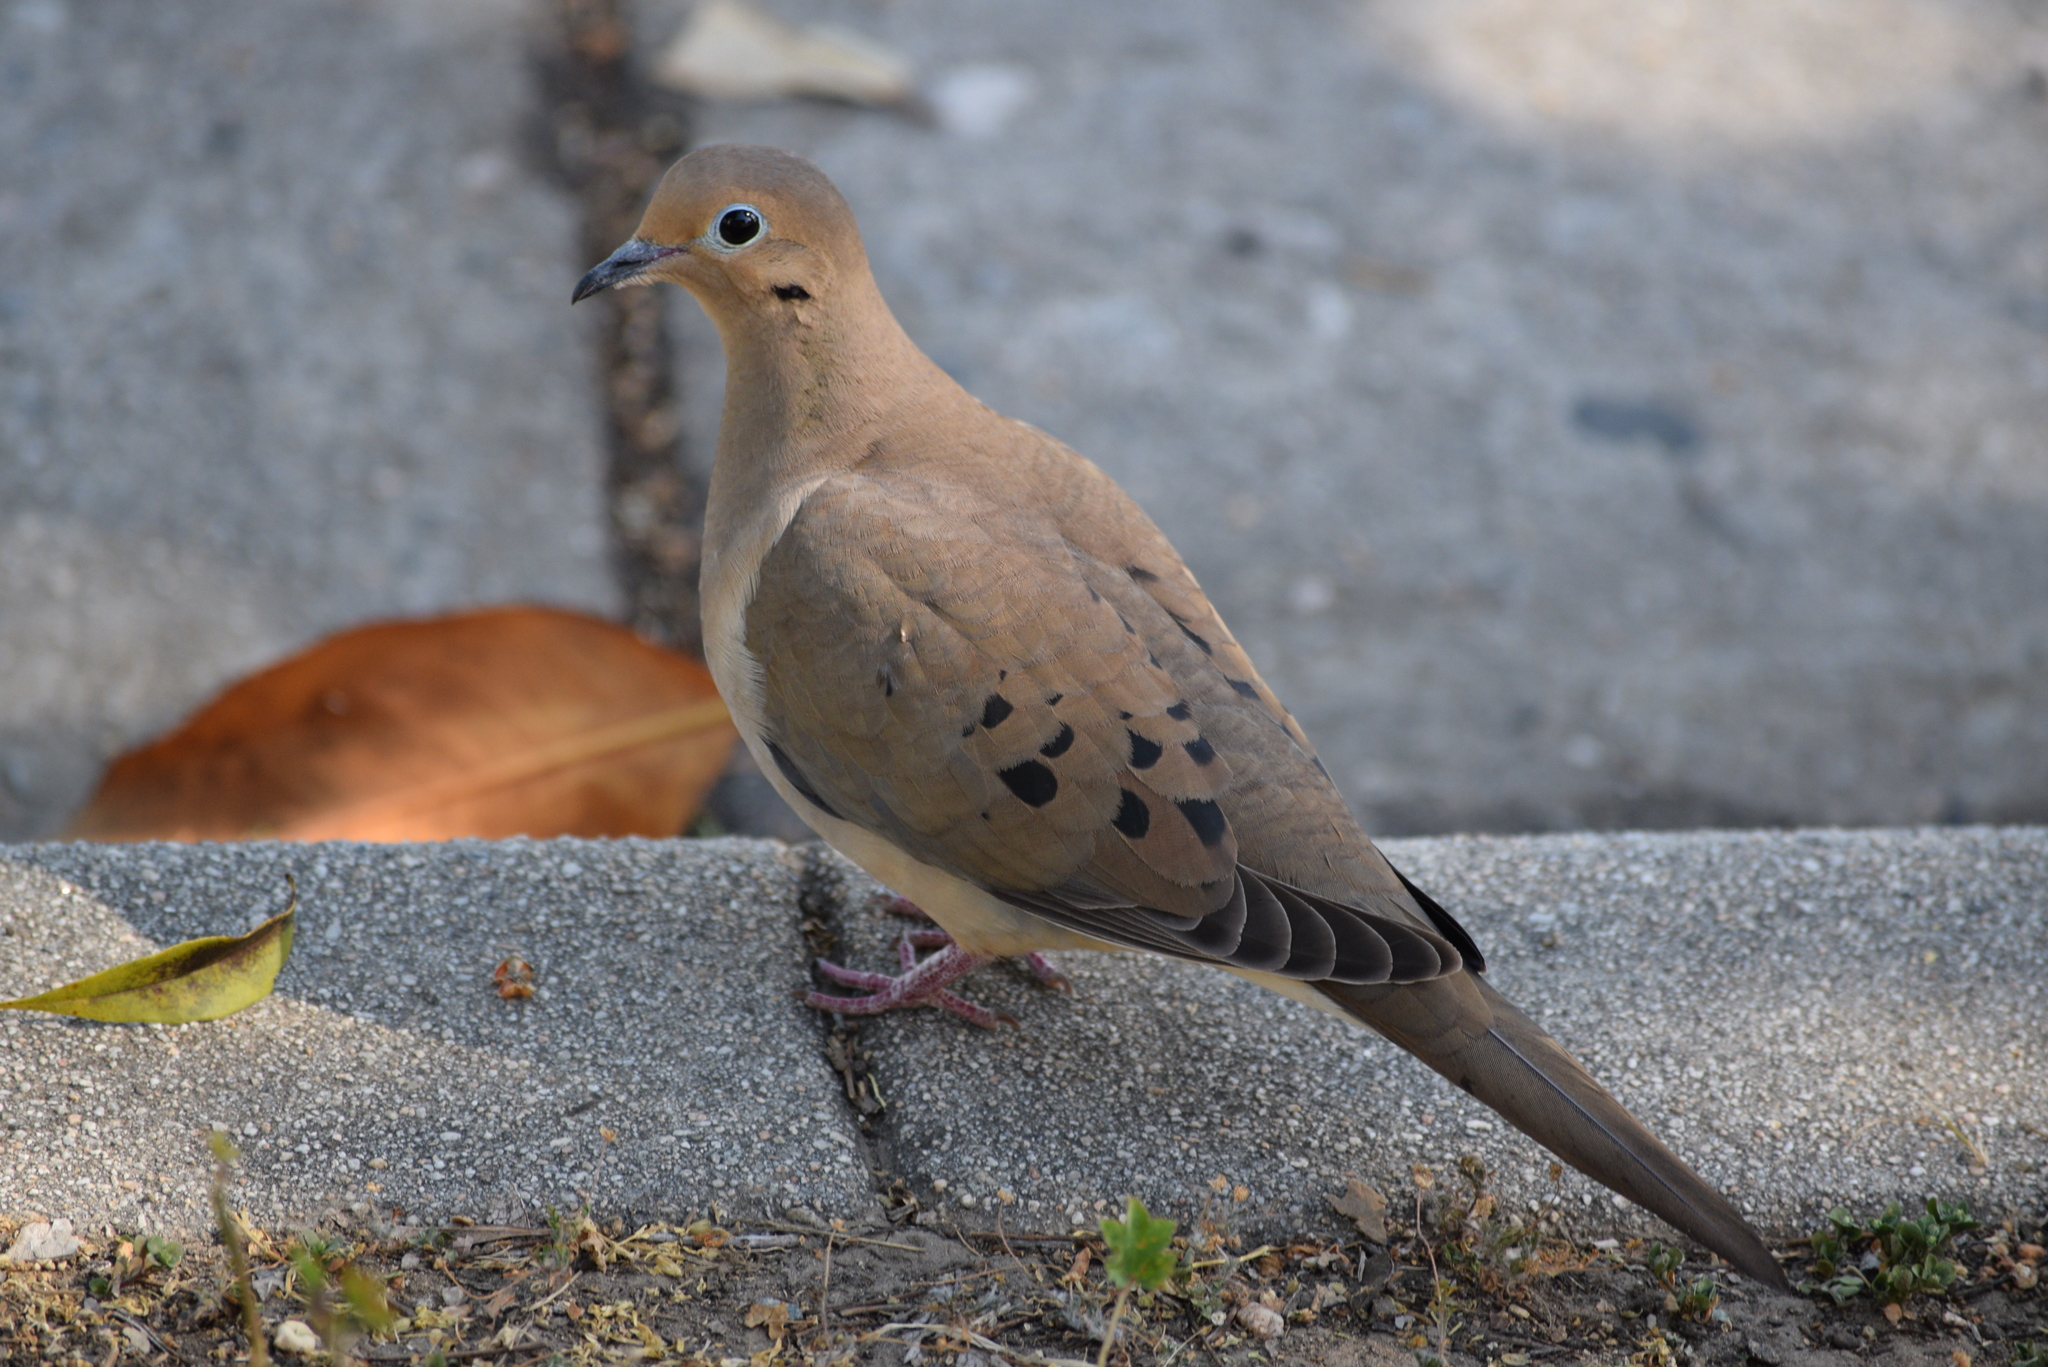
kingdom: Animalia
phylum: Chordata
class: Aves
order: Columbiformes
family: Columbidae
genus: Zenaida
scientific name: Zenaida macroura
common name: Mourning dove
